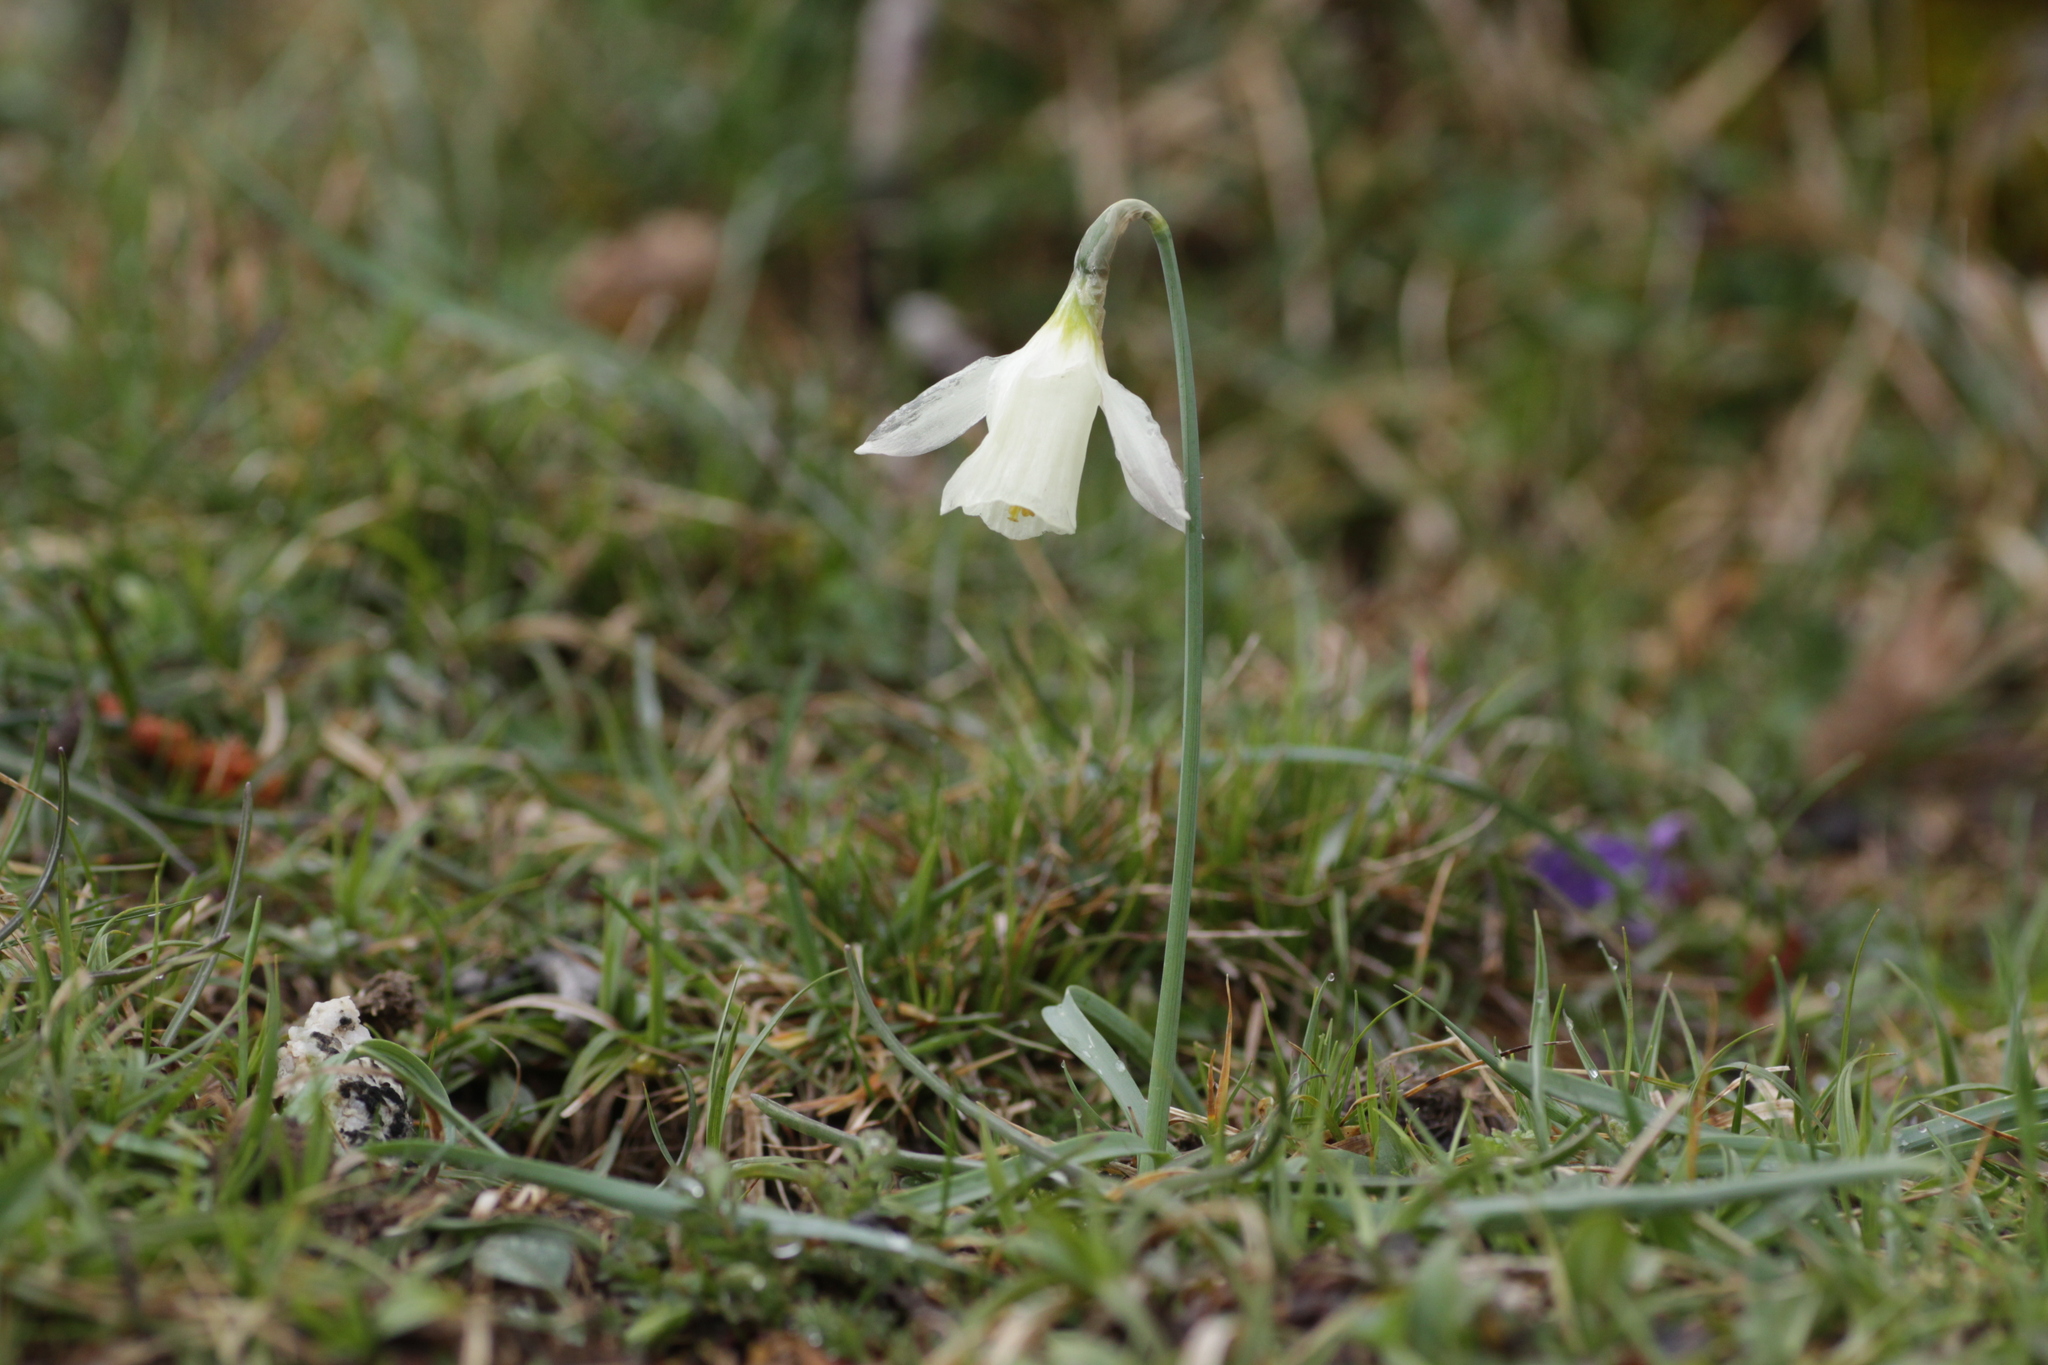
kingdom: Plantae
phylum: Tracheophyta
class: Liliopsida
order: Asparagales
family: Amaryllidaceae
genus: Narcissus
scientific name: Narcissus moschatus
